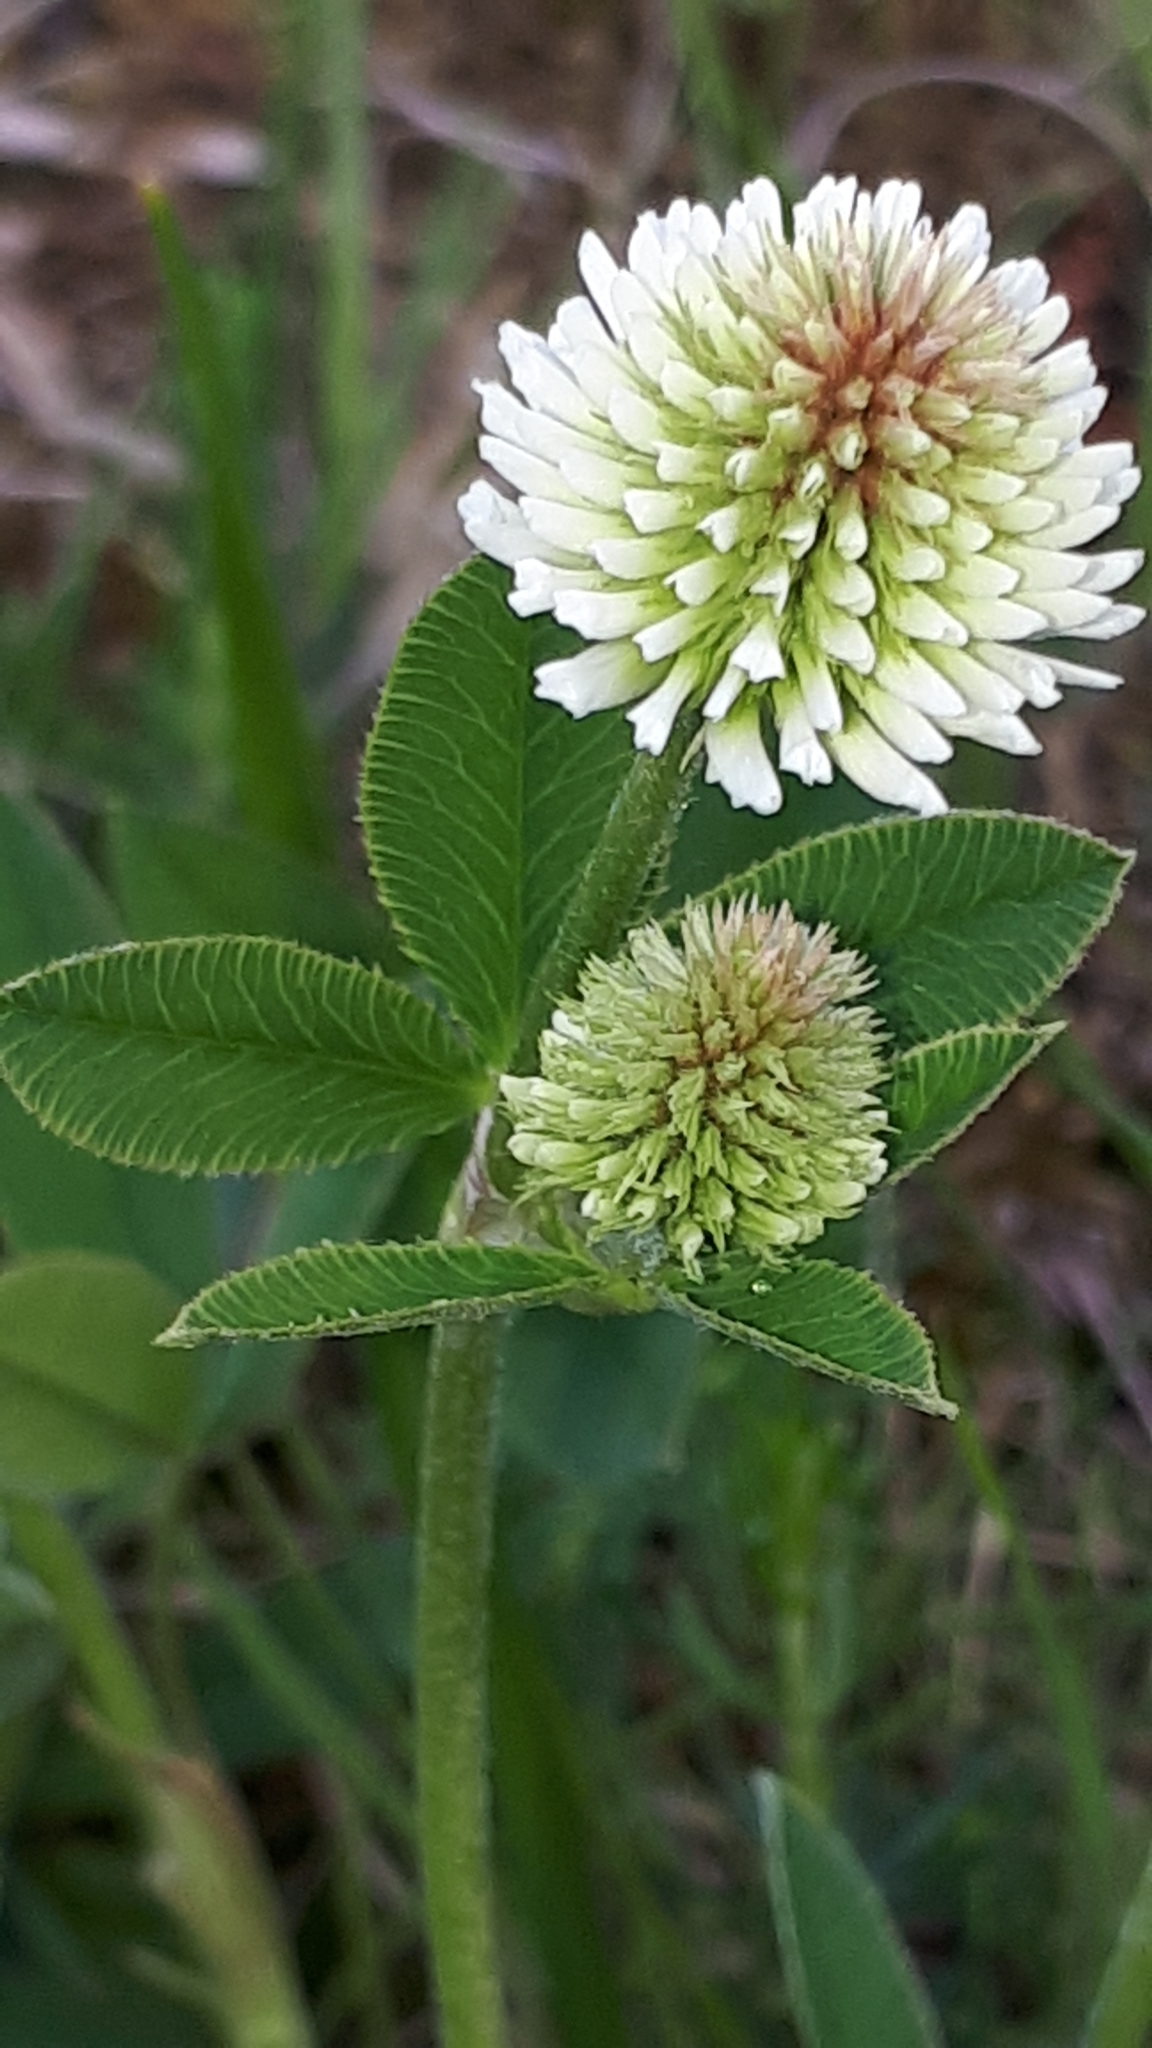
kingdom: Plantae
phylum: Tracheophyta
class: Magnoliopsida
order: Fabales
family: Fabaceae
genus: Trifolium
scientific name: Trifolium montanum
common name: Mountain clover
